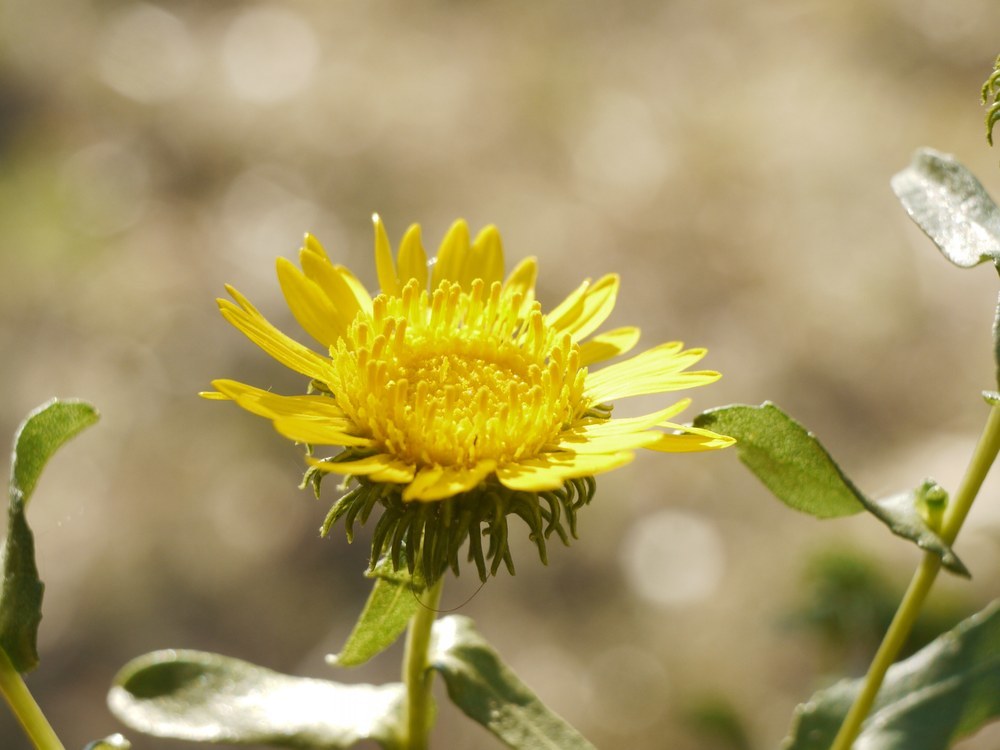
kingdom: Plantae
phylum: Tracheophyta
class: Magnoliopsida
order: Asterales
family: Asteraceae
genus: Grindelia
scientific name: Grindelia squarrosa
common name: Curly-cup gumweed
